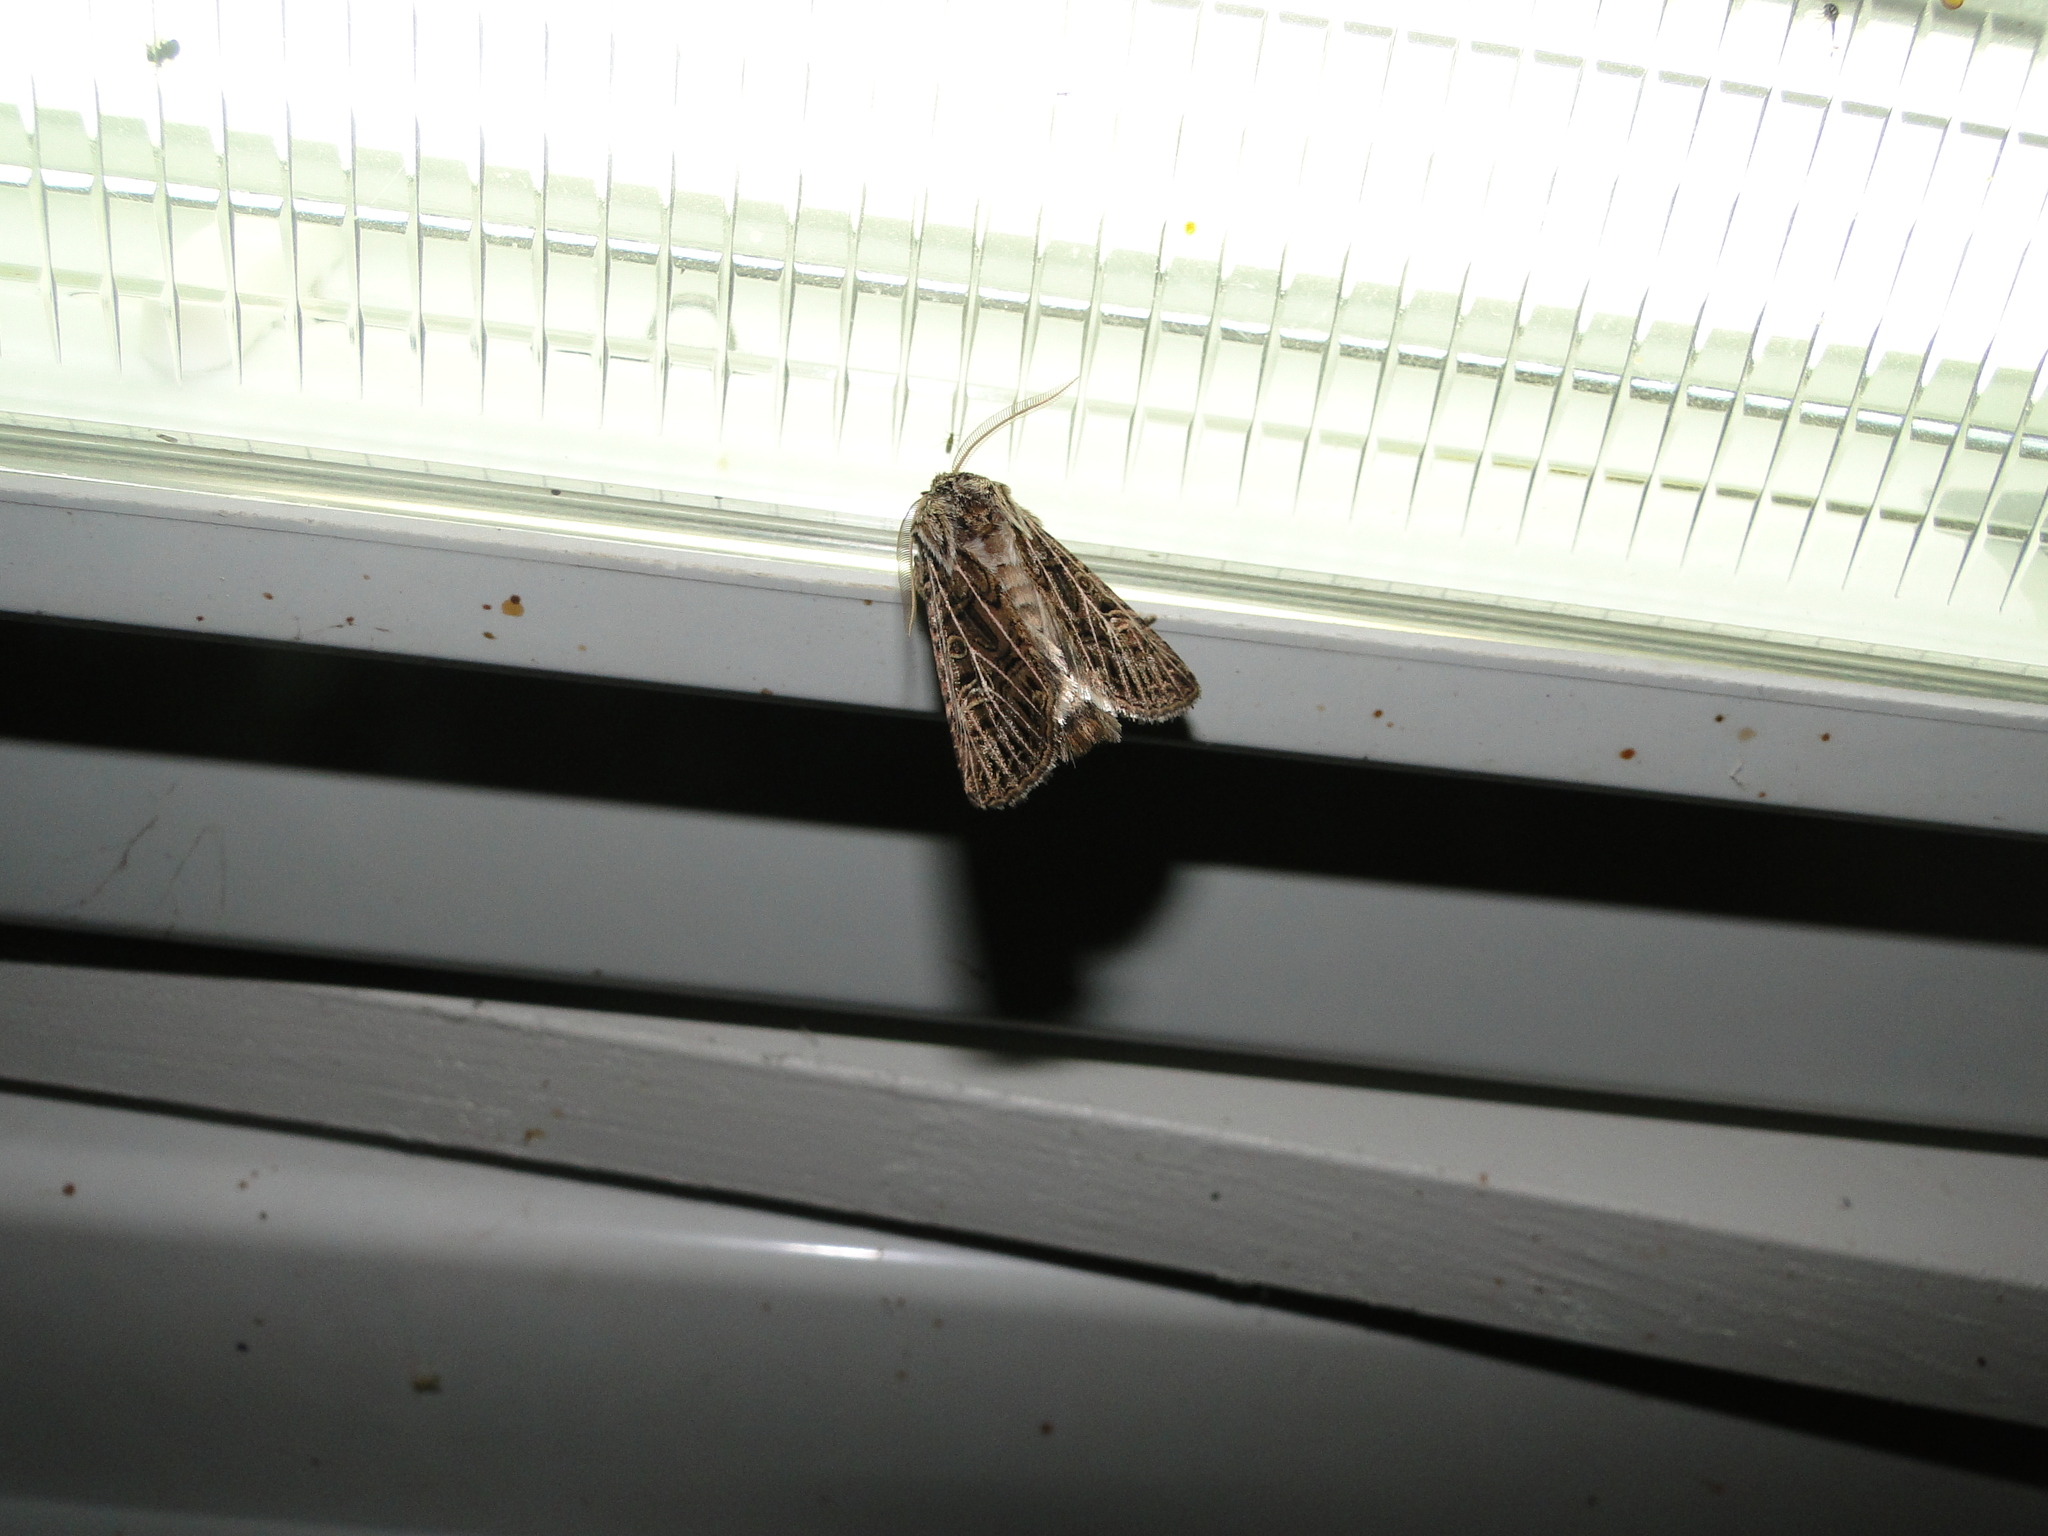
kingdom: Animalia
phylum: Arthropoda
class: Insecta
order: Lepidoptera
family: Noctuidae
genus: Tholera
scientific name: Tholera decimalis
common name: Feathered gothic
